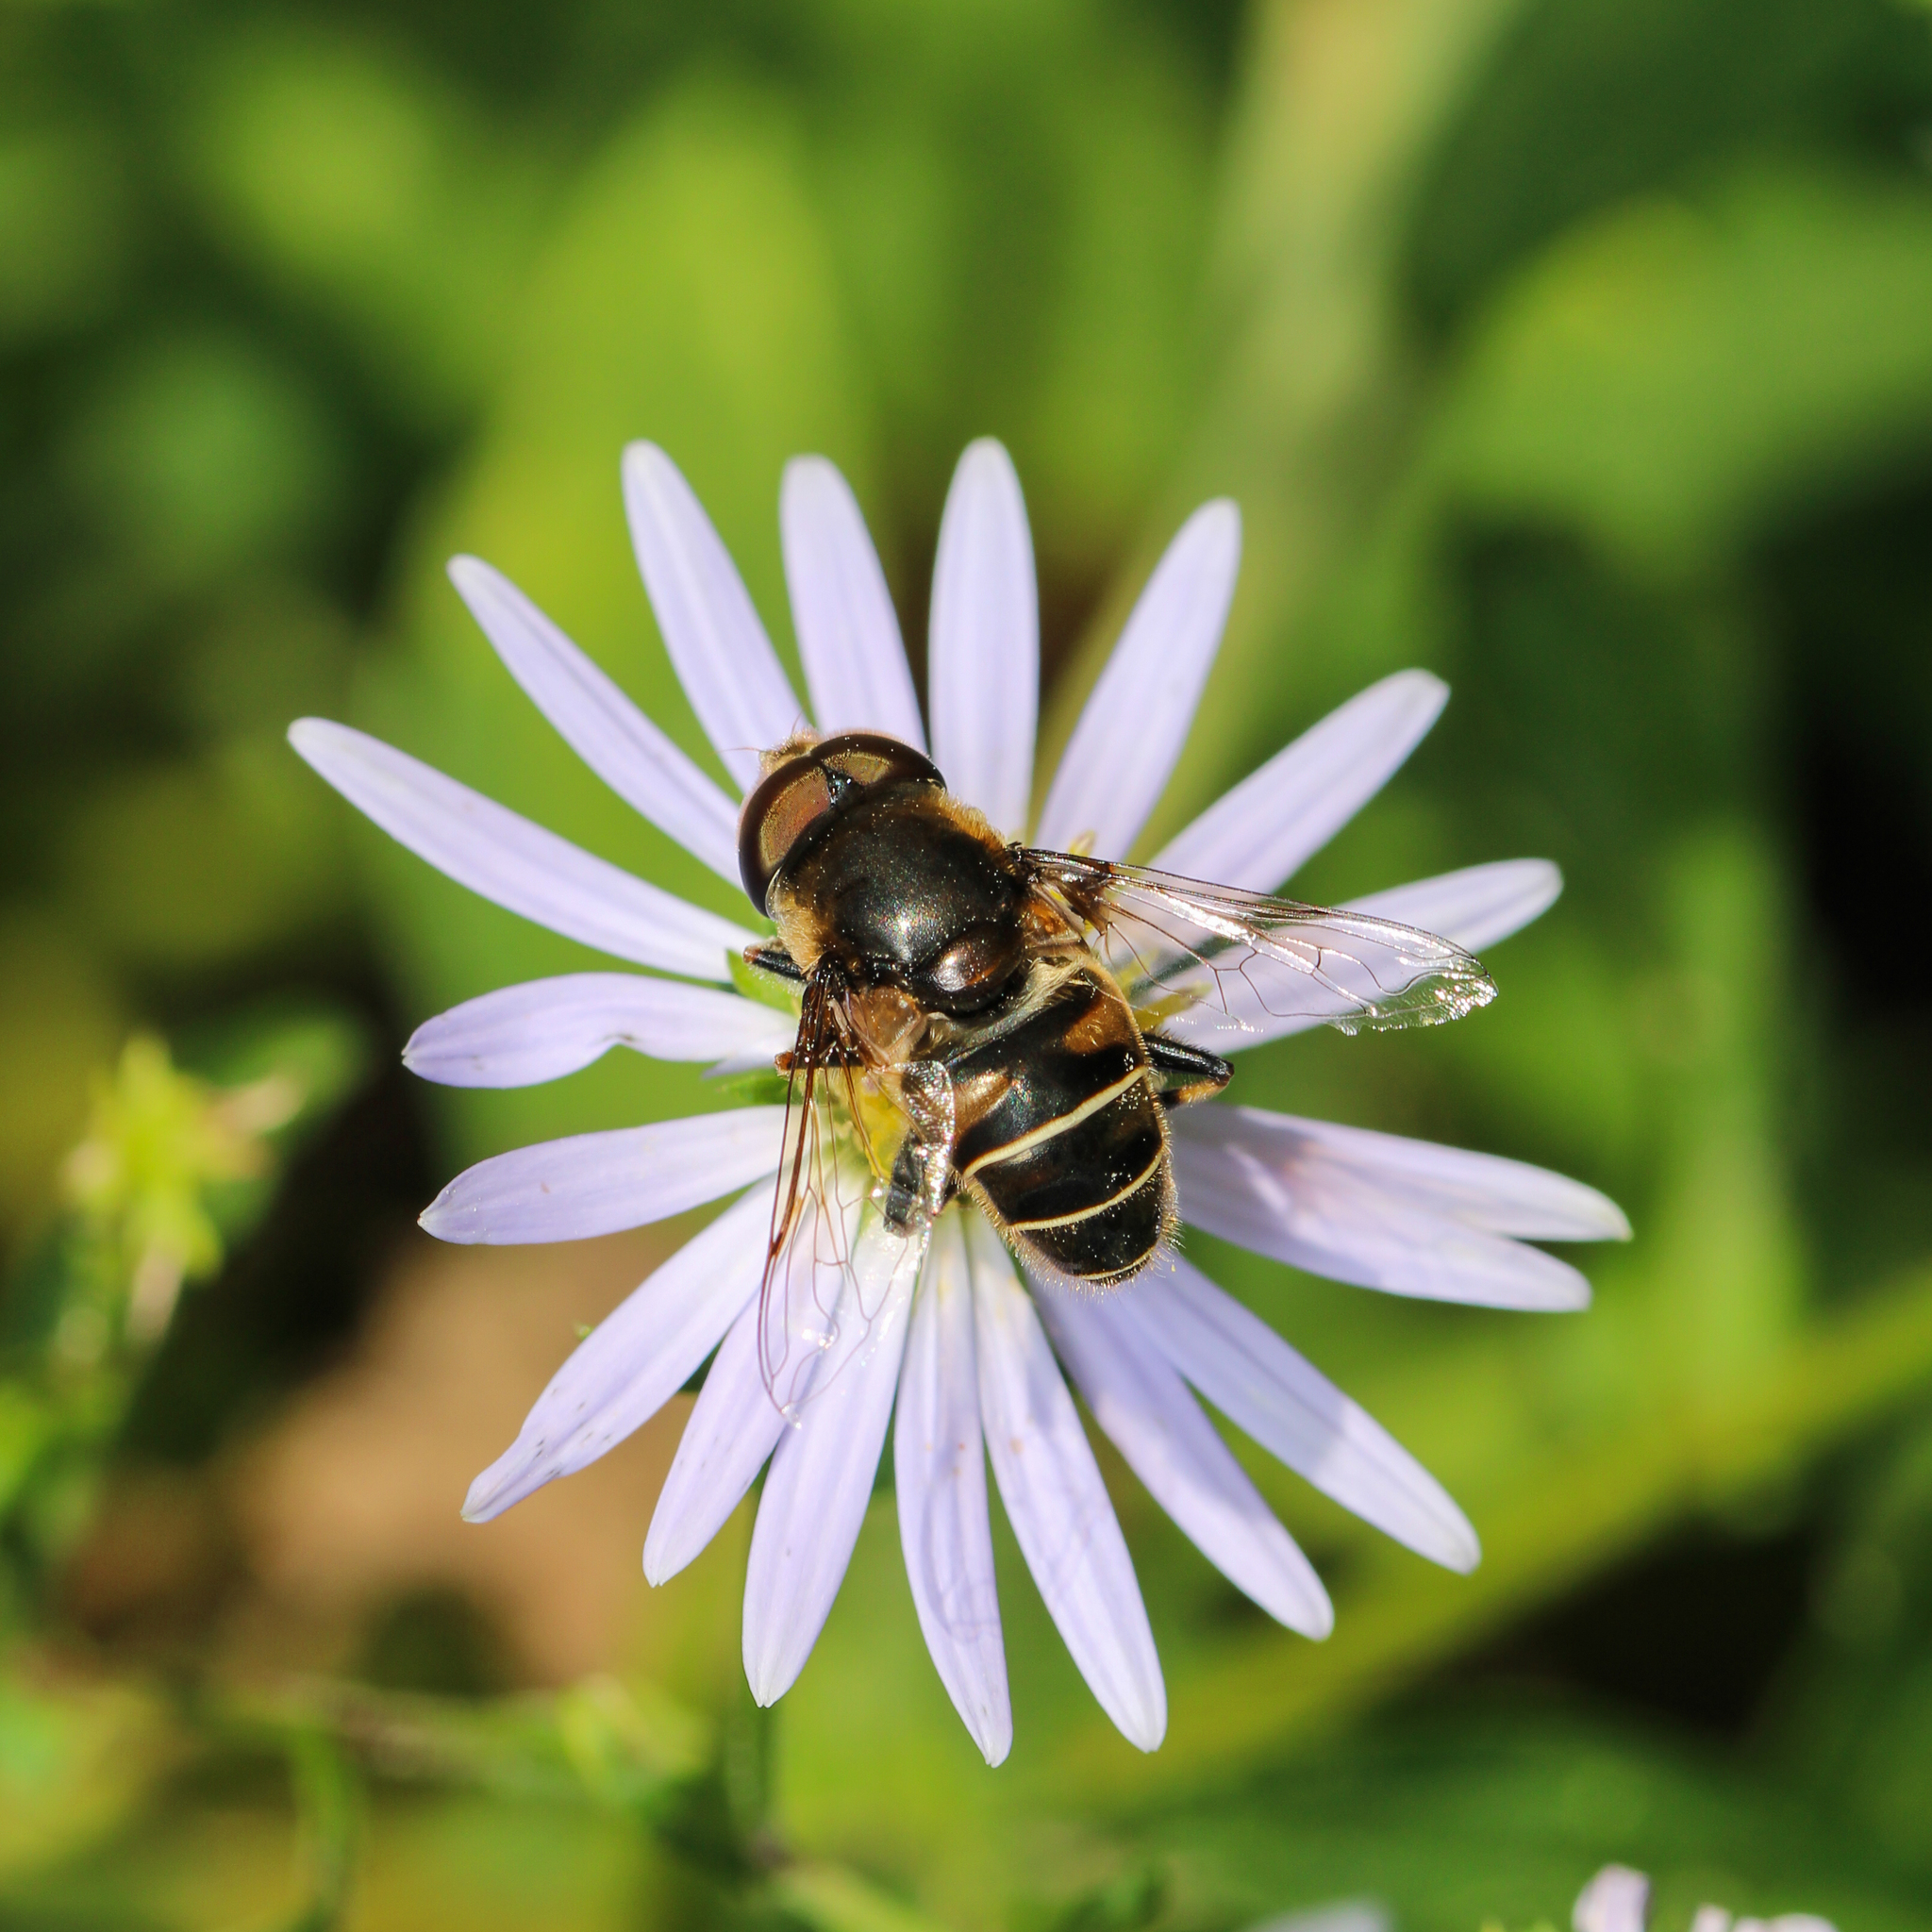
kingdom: Animalia
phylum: Arthropoda
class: Insecta
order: Diptera
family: Syrphidae
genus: Eristalis
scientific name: Eristalis dimidiata
